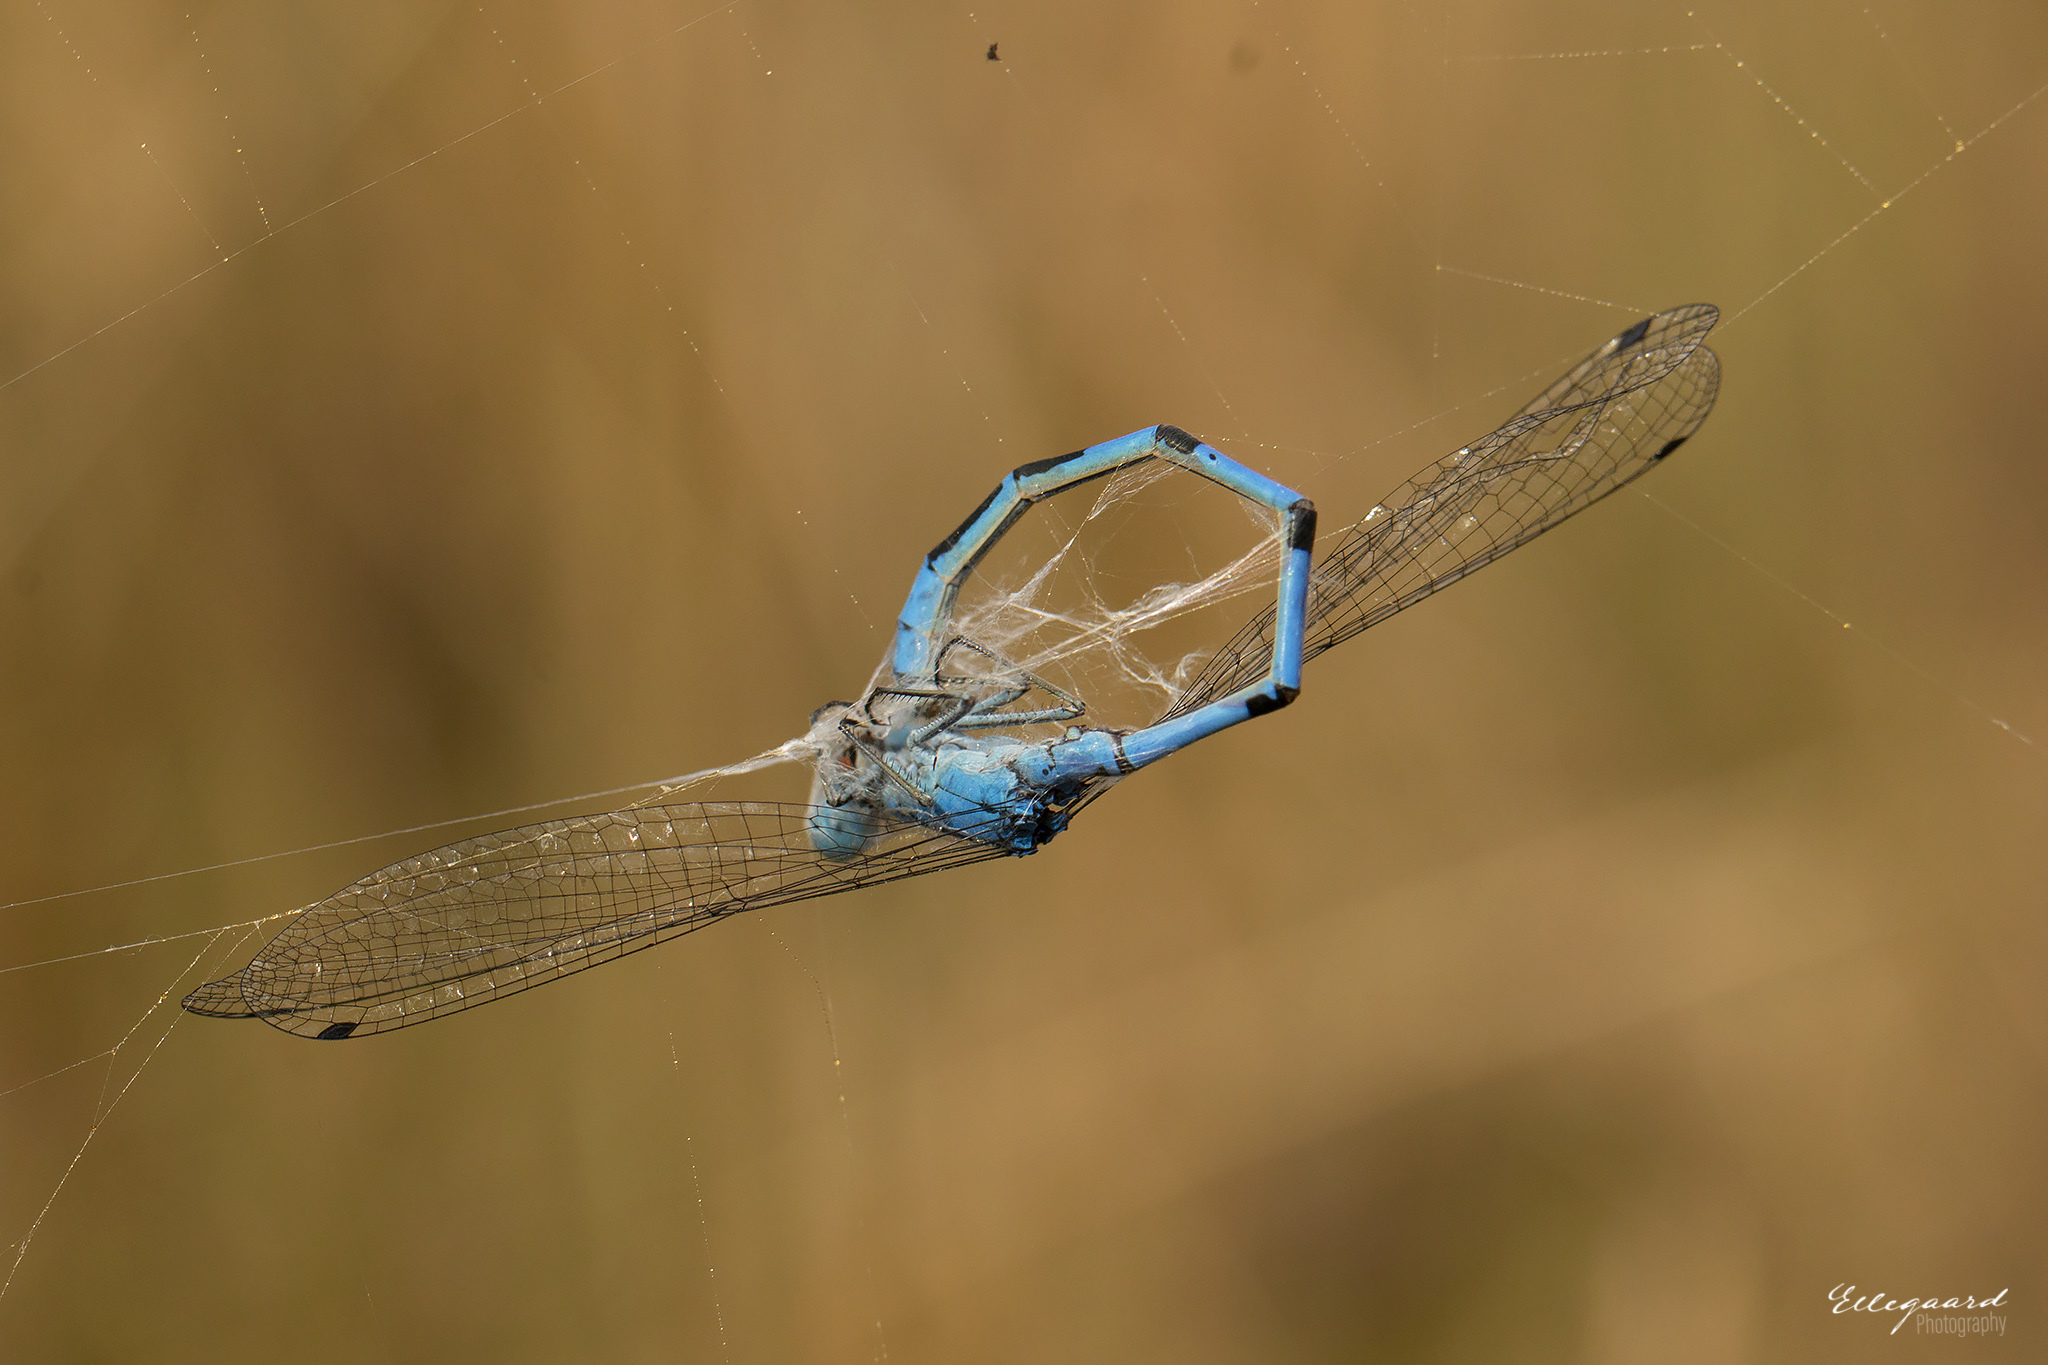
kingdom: Animalia
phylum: Arthropoda
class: Insecta
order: Odonata
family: Coenagrionidae
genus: Enallagma
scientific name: Enallagma cyathigerum
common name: Common blue damselfly
